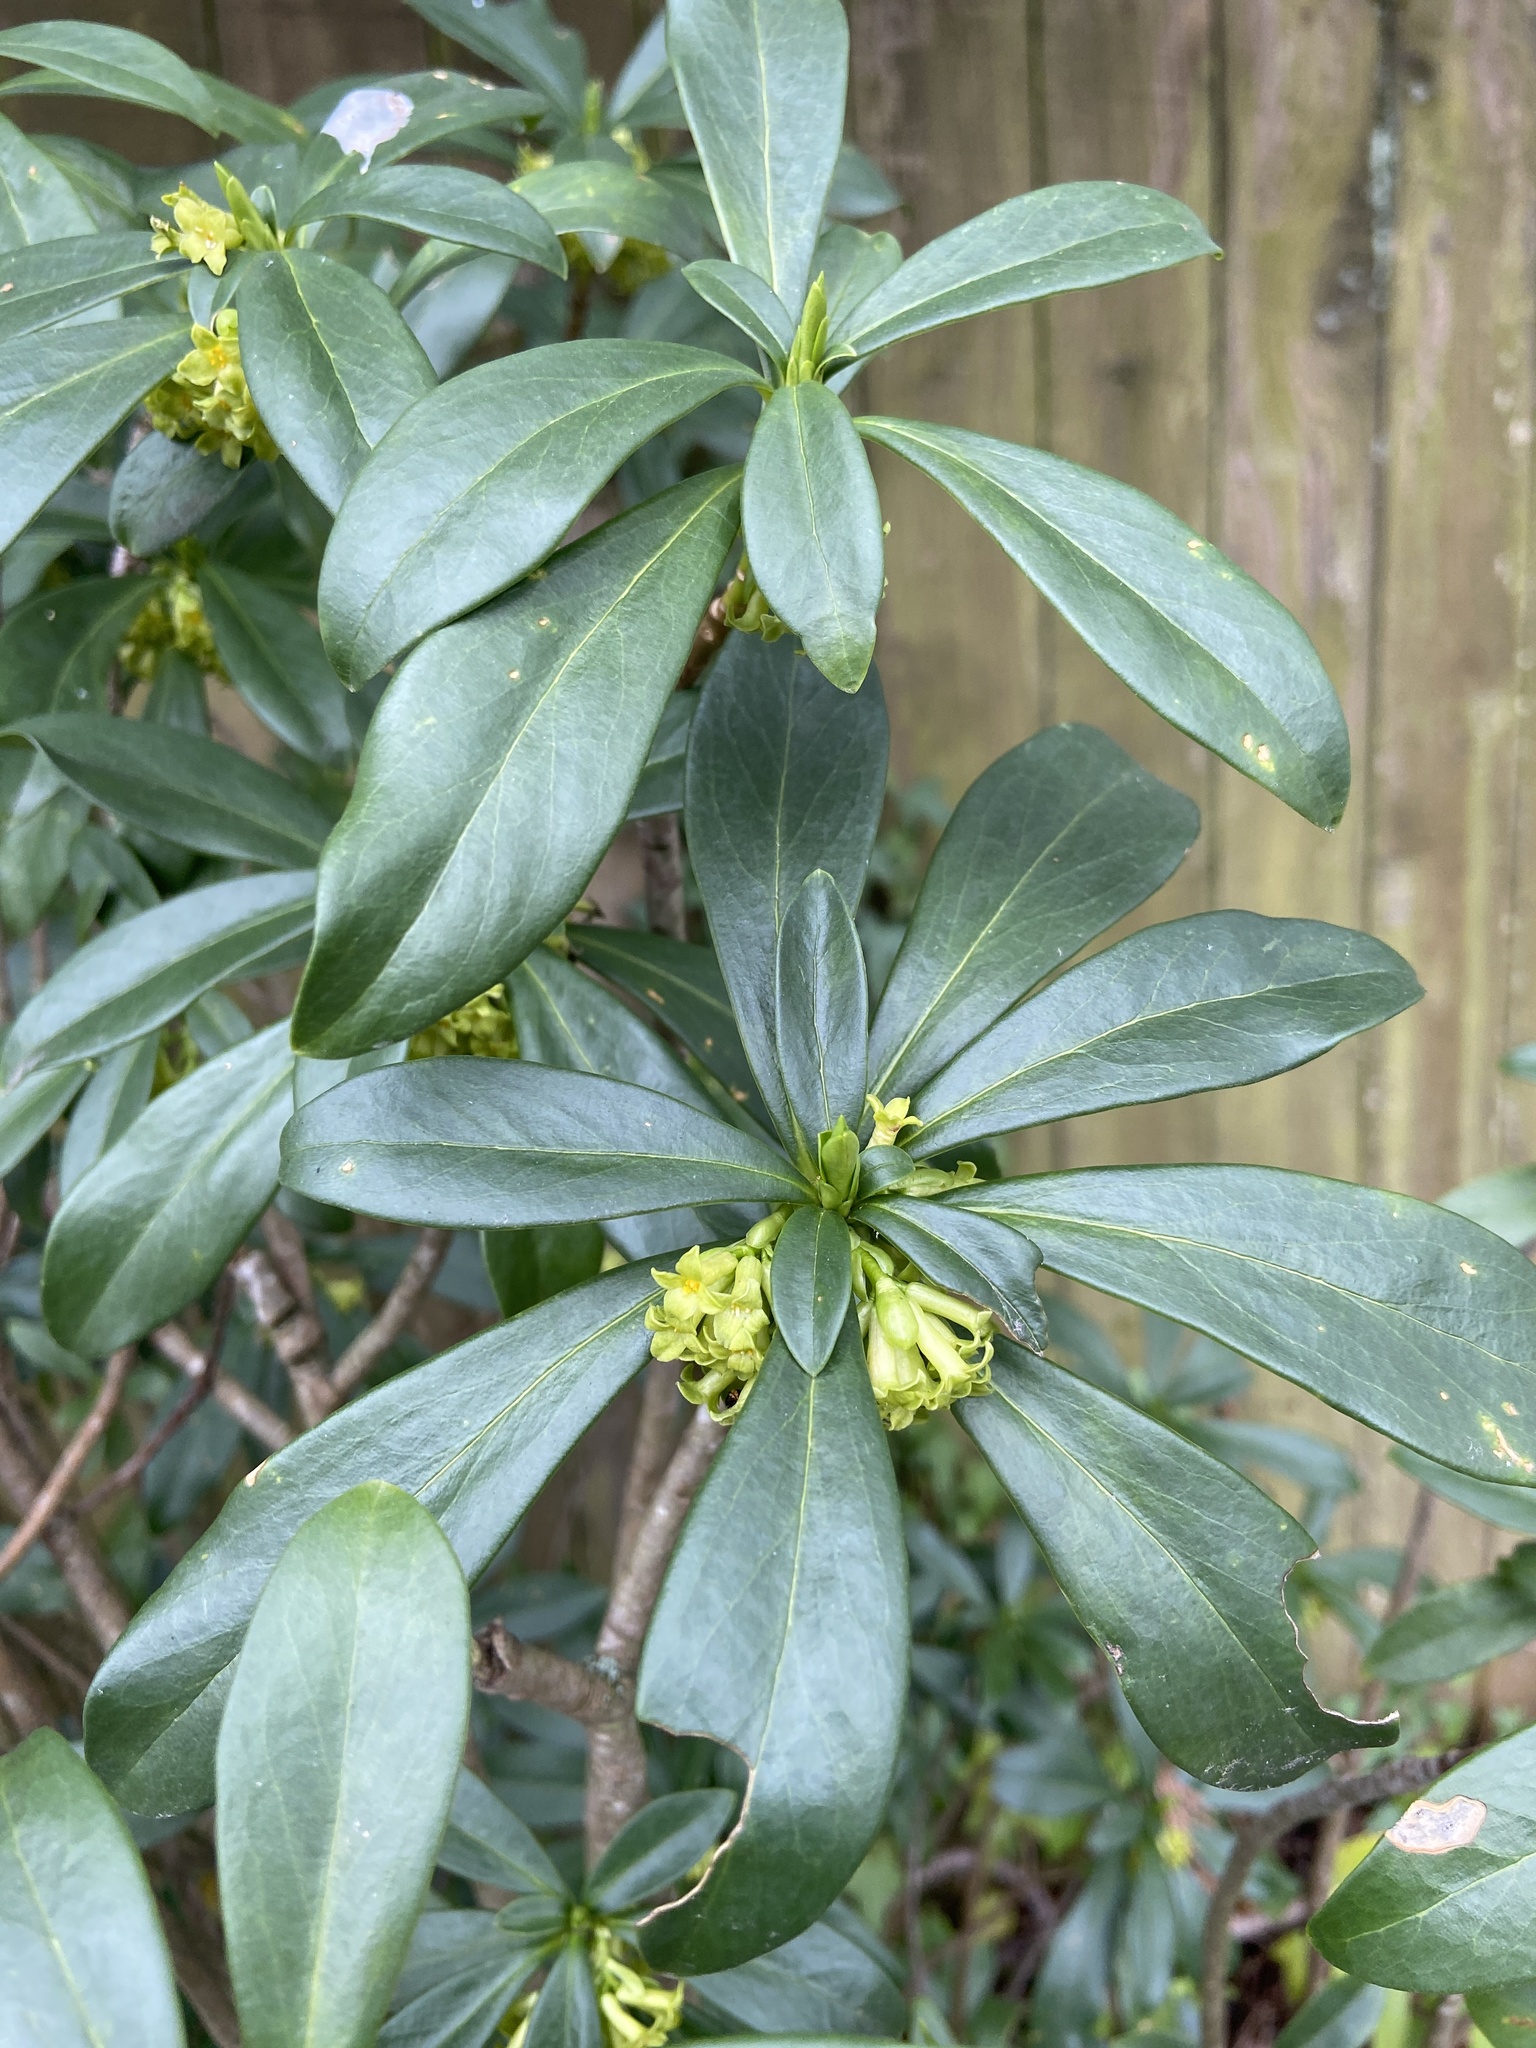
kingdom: Plantae
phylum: Tracheophyta
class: Magnoliopsida
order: Malvales
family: Thymelaeaceae
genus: Daphne
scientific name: Daphne laureola
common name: Spurge-laurel
